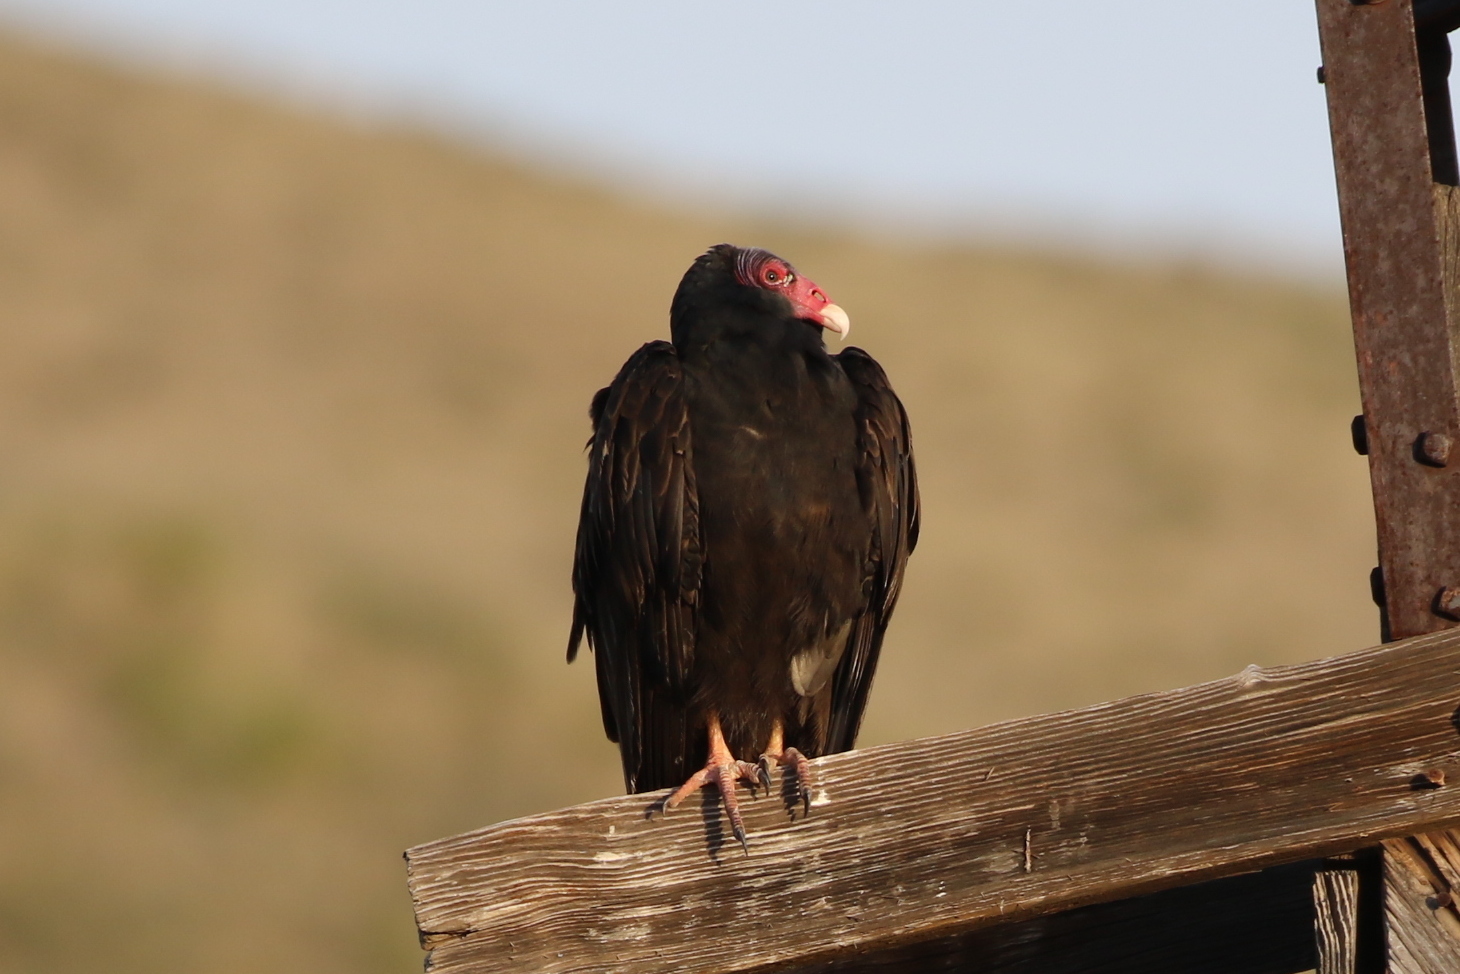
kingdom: Animalia
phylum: Chordata
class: Aves
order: Accipitriformes
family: Cathartidae
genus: Cathartes
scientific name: Cathartes aura
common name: Turkey vulture
